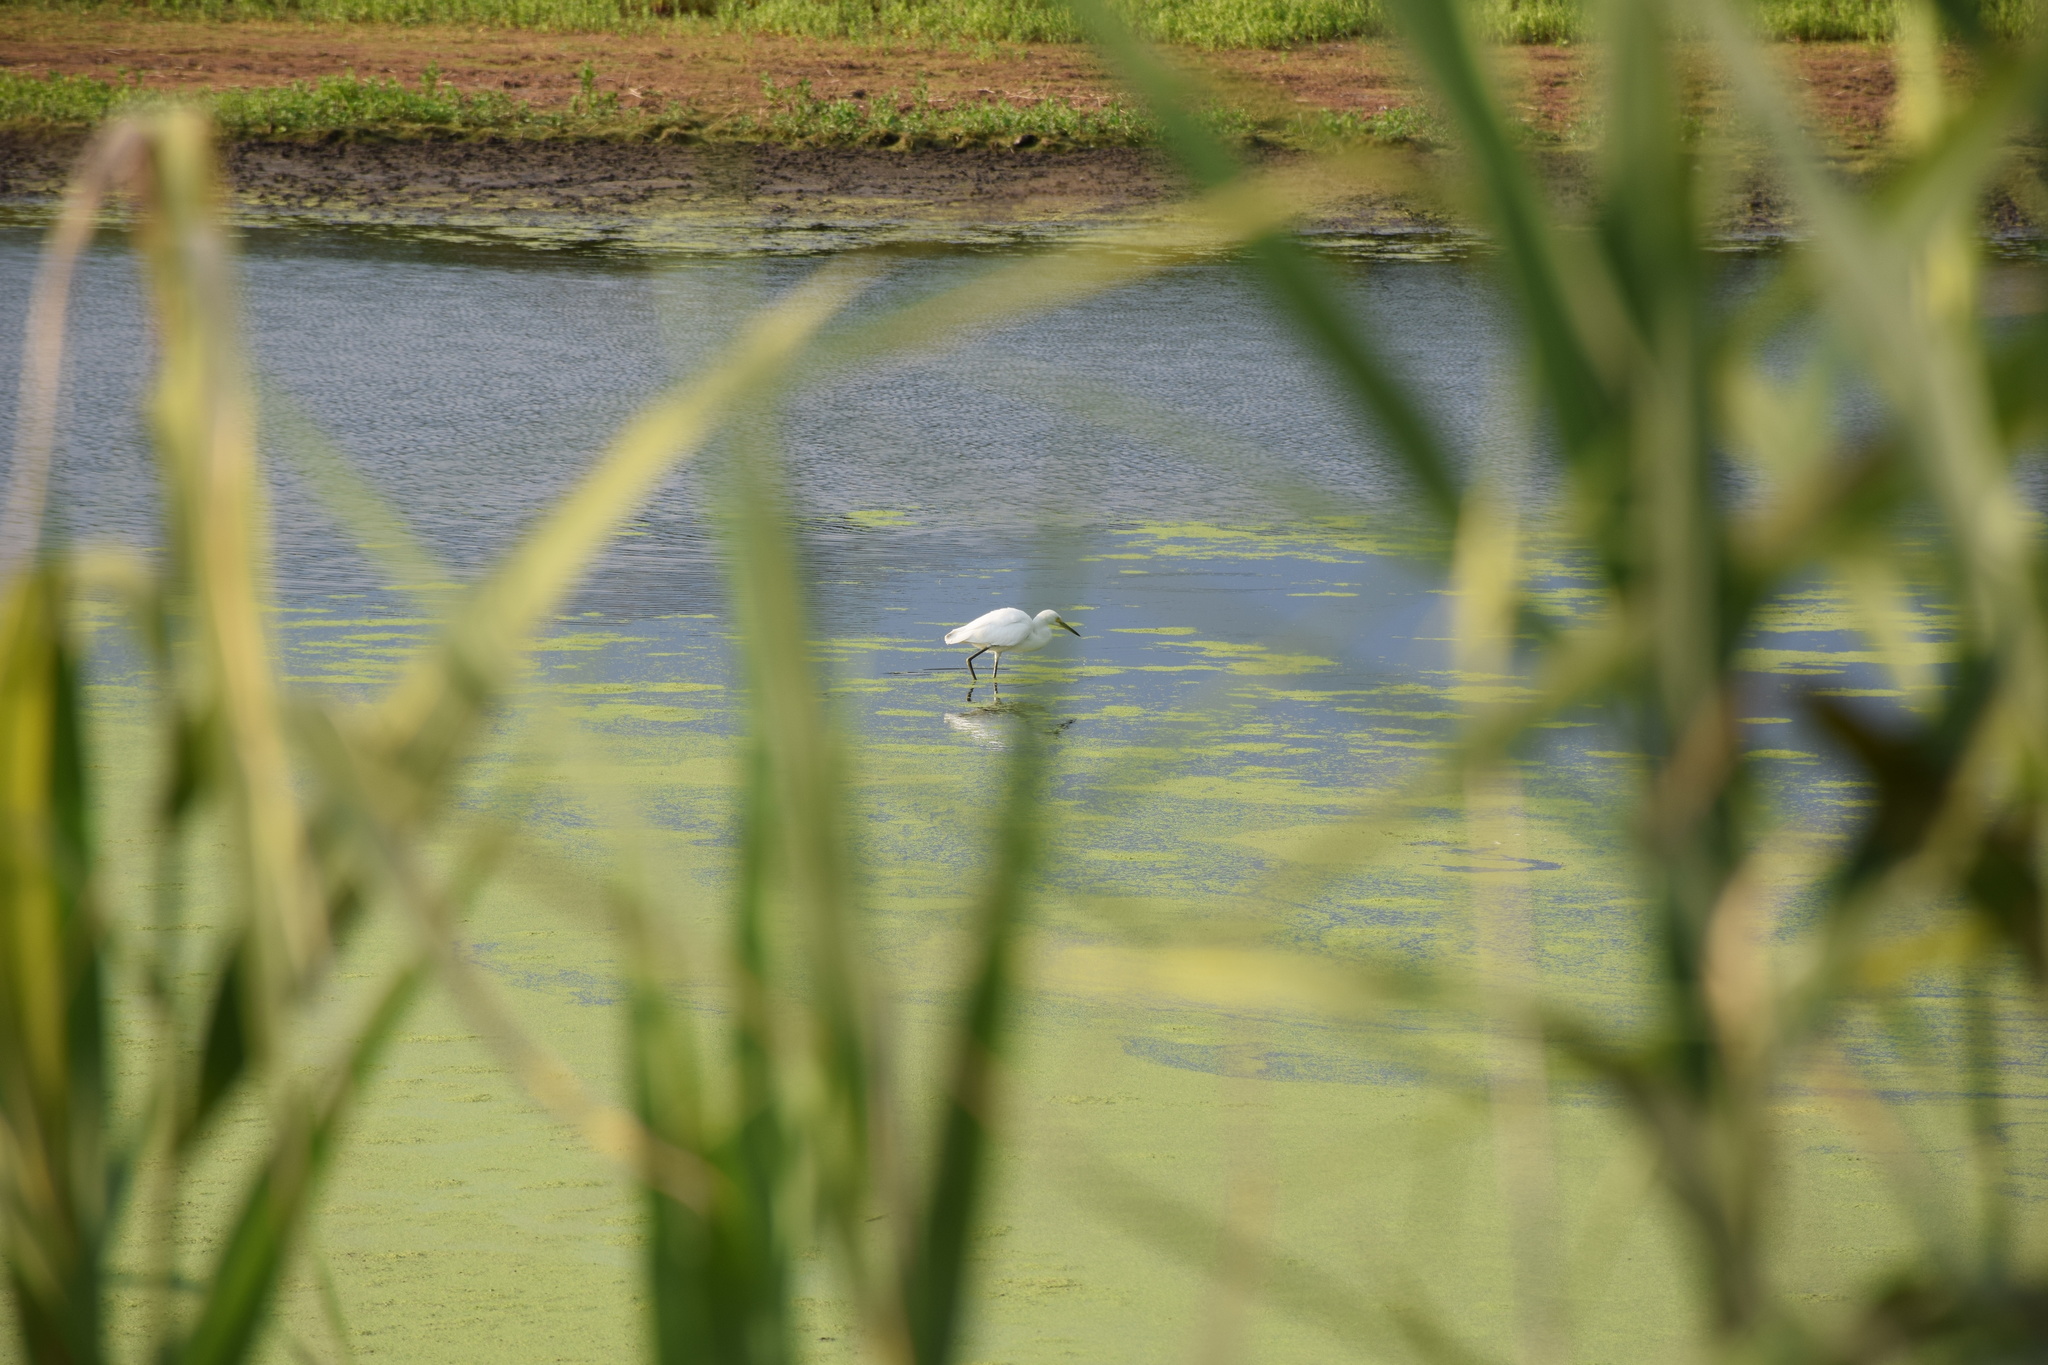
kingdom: Animalia
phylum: Chordata
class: Aves
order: Pelecaniformes
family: Ardeidae
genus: Egretta
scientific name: Egretta thula
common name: Snowy egret
